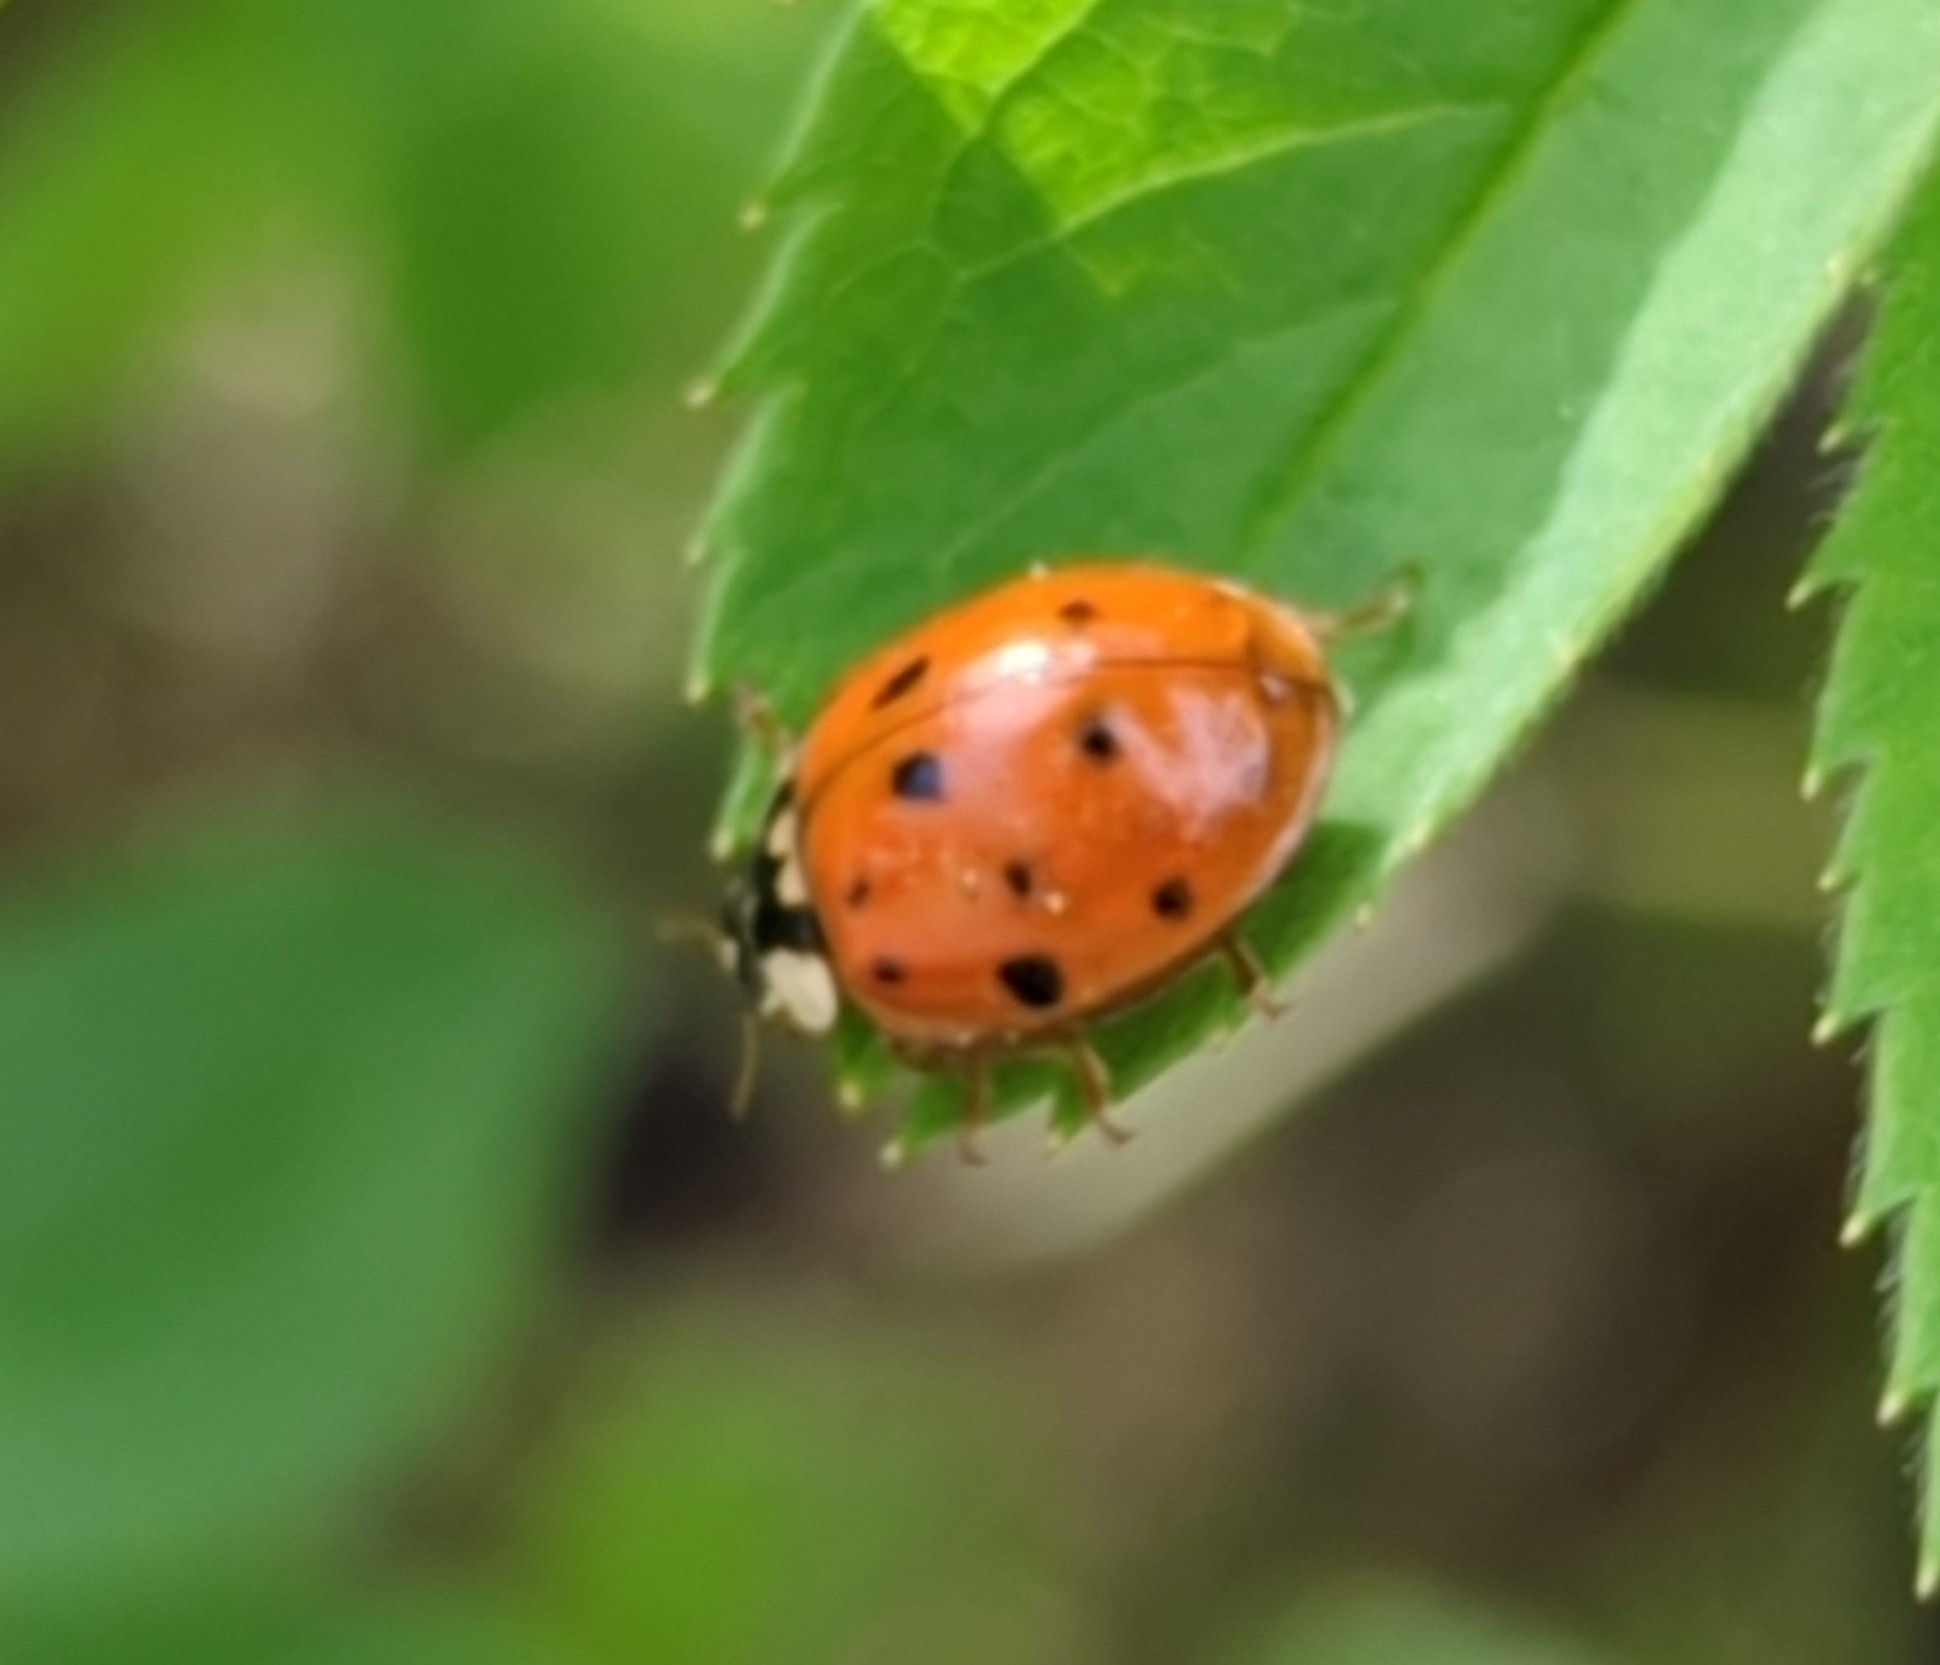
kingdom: Animalia
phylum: Arthropoda
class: Insecta
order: Coleoptera
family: Coccinellidae
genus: Harmonia
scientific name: Harmonia axyridis
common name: Harlequin ladybird
